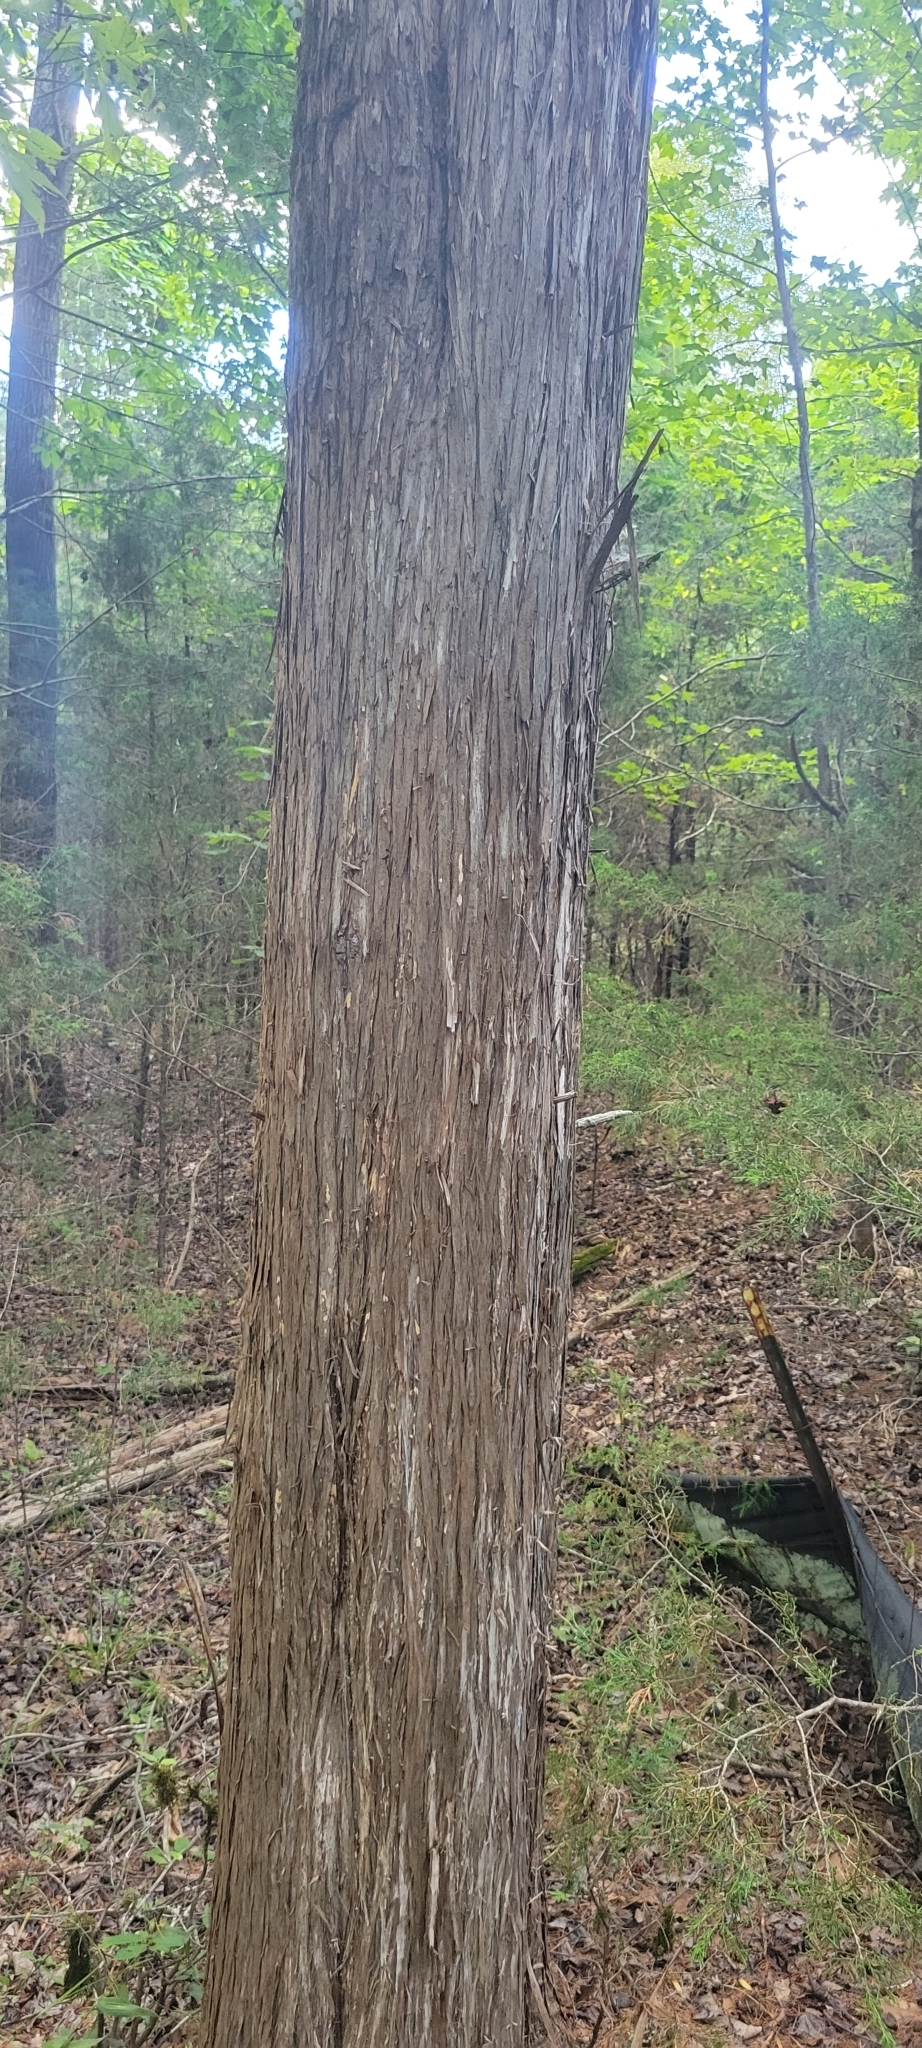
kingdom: Plantae
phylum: Tracheophyta
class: Pinopsida
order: Pinales
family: Cupressaceae
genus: Juniperus
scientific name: Juniperus virginiana
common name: Red juniper
